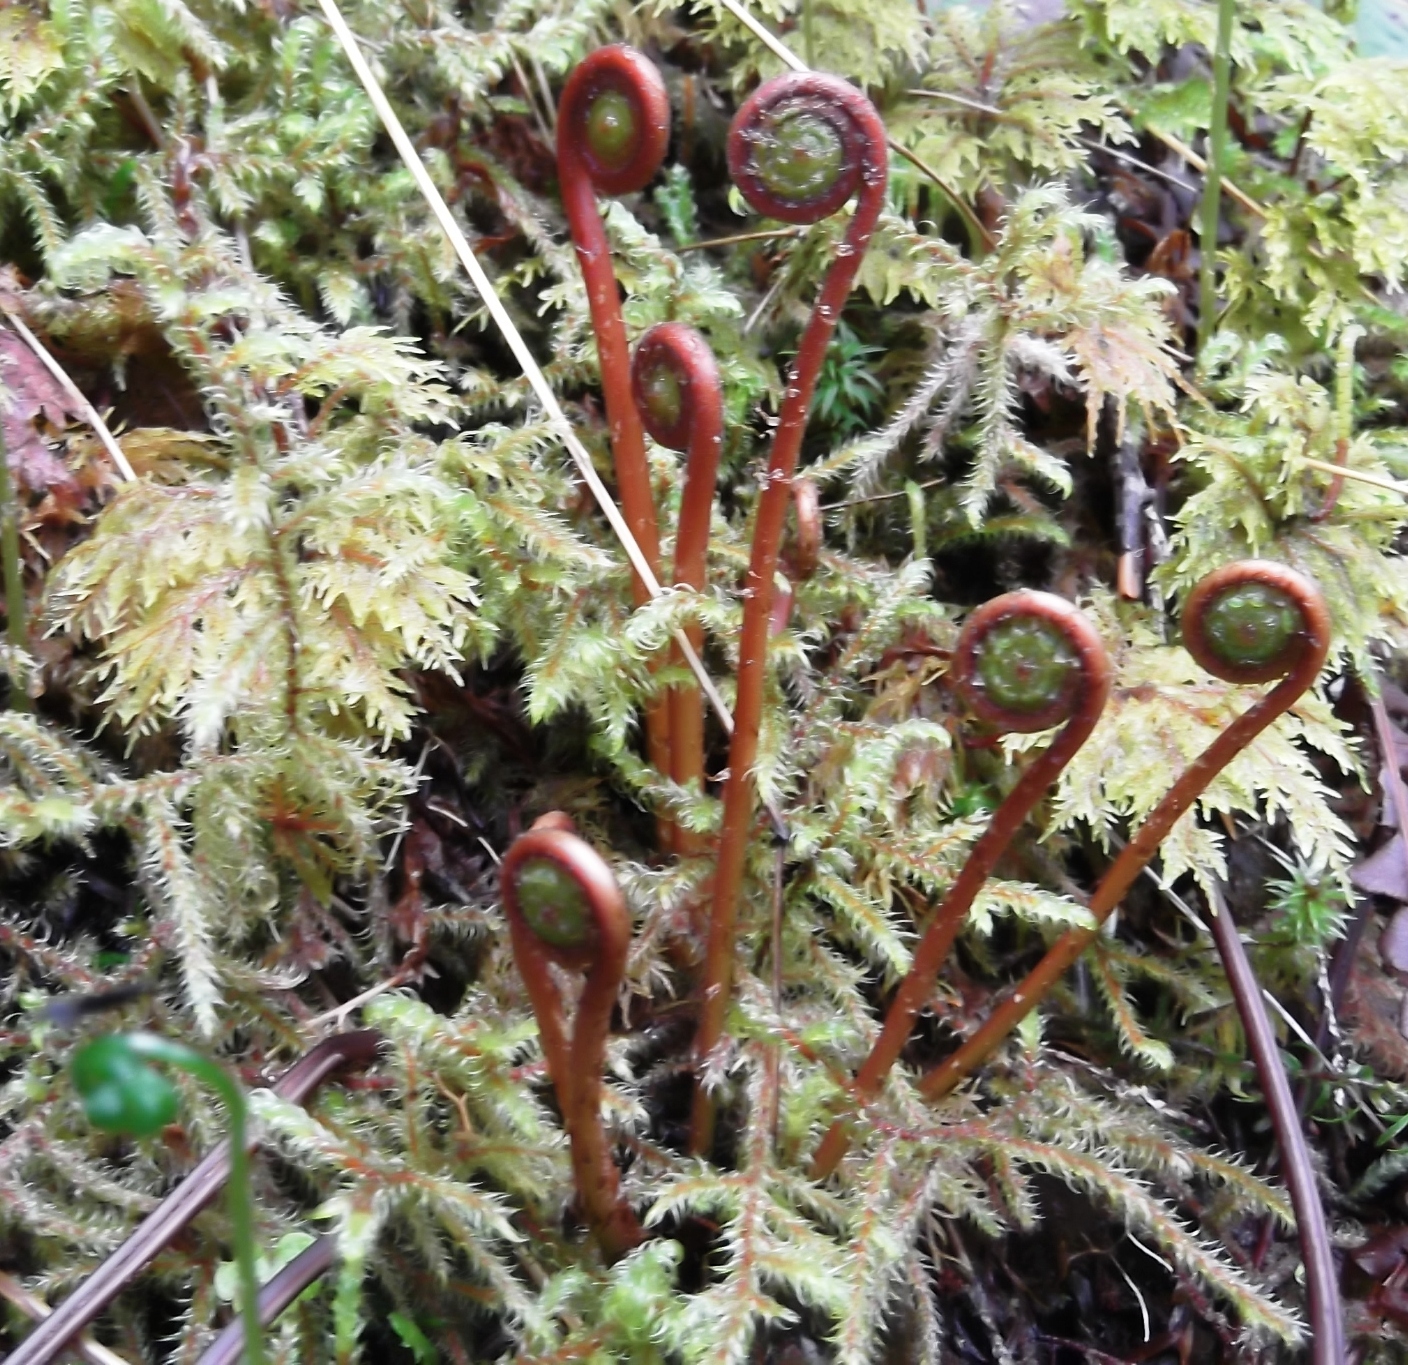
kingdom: Plantae
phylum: Tracheophyta
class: Polypodiopsida
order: Polypodiales
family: Blechnaceae
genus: Struthiopteris
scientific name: Struthiopteris spicant
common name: Deer fern
